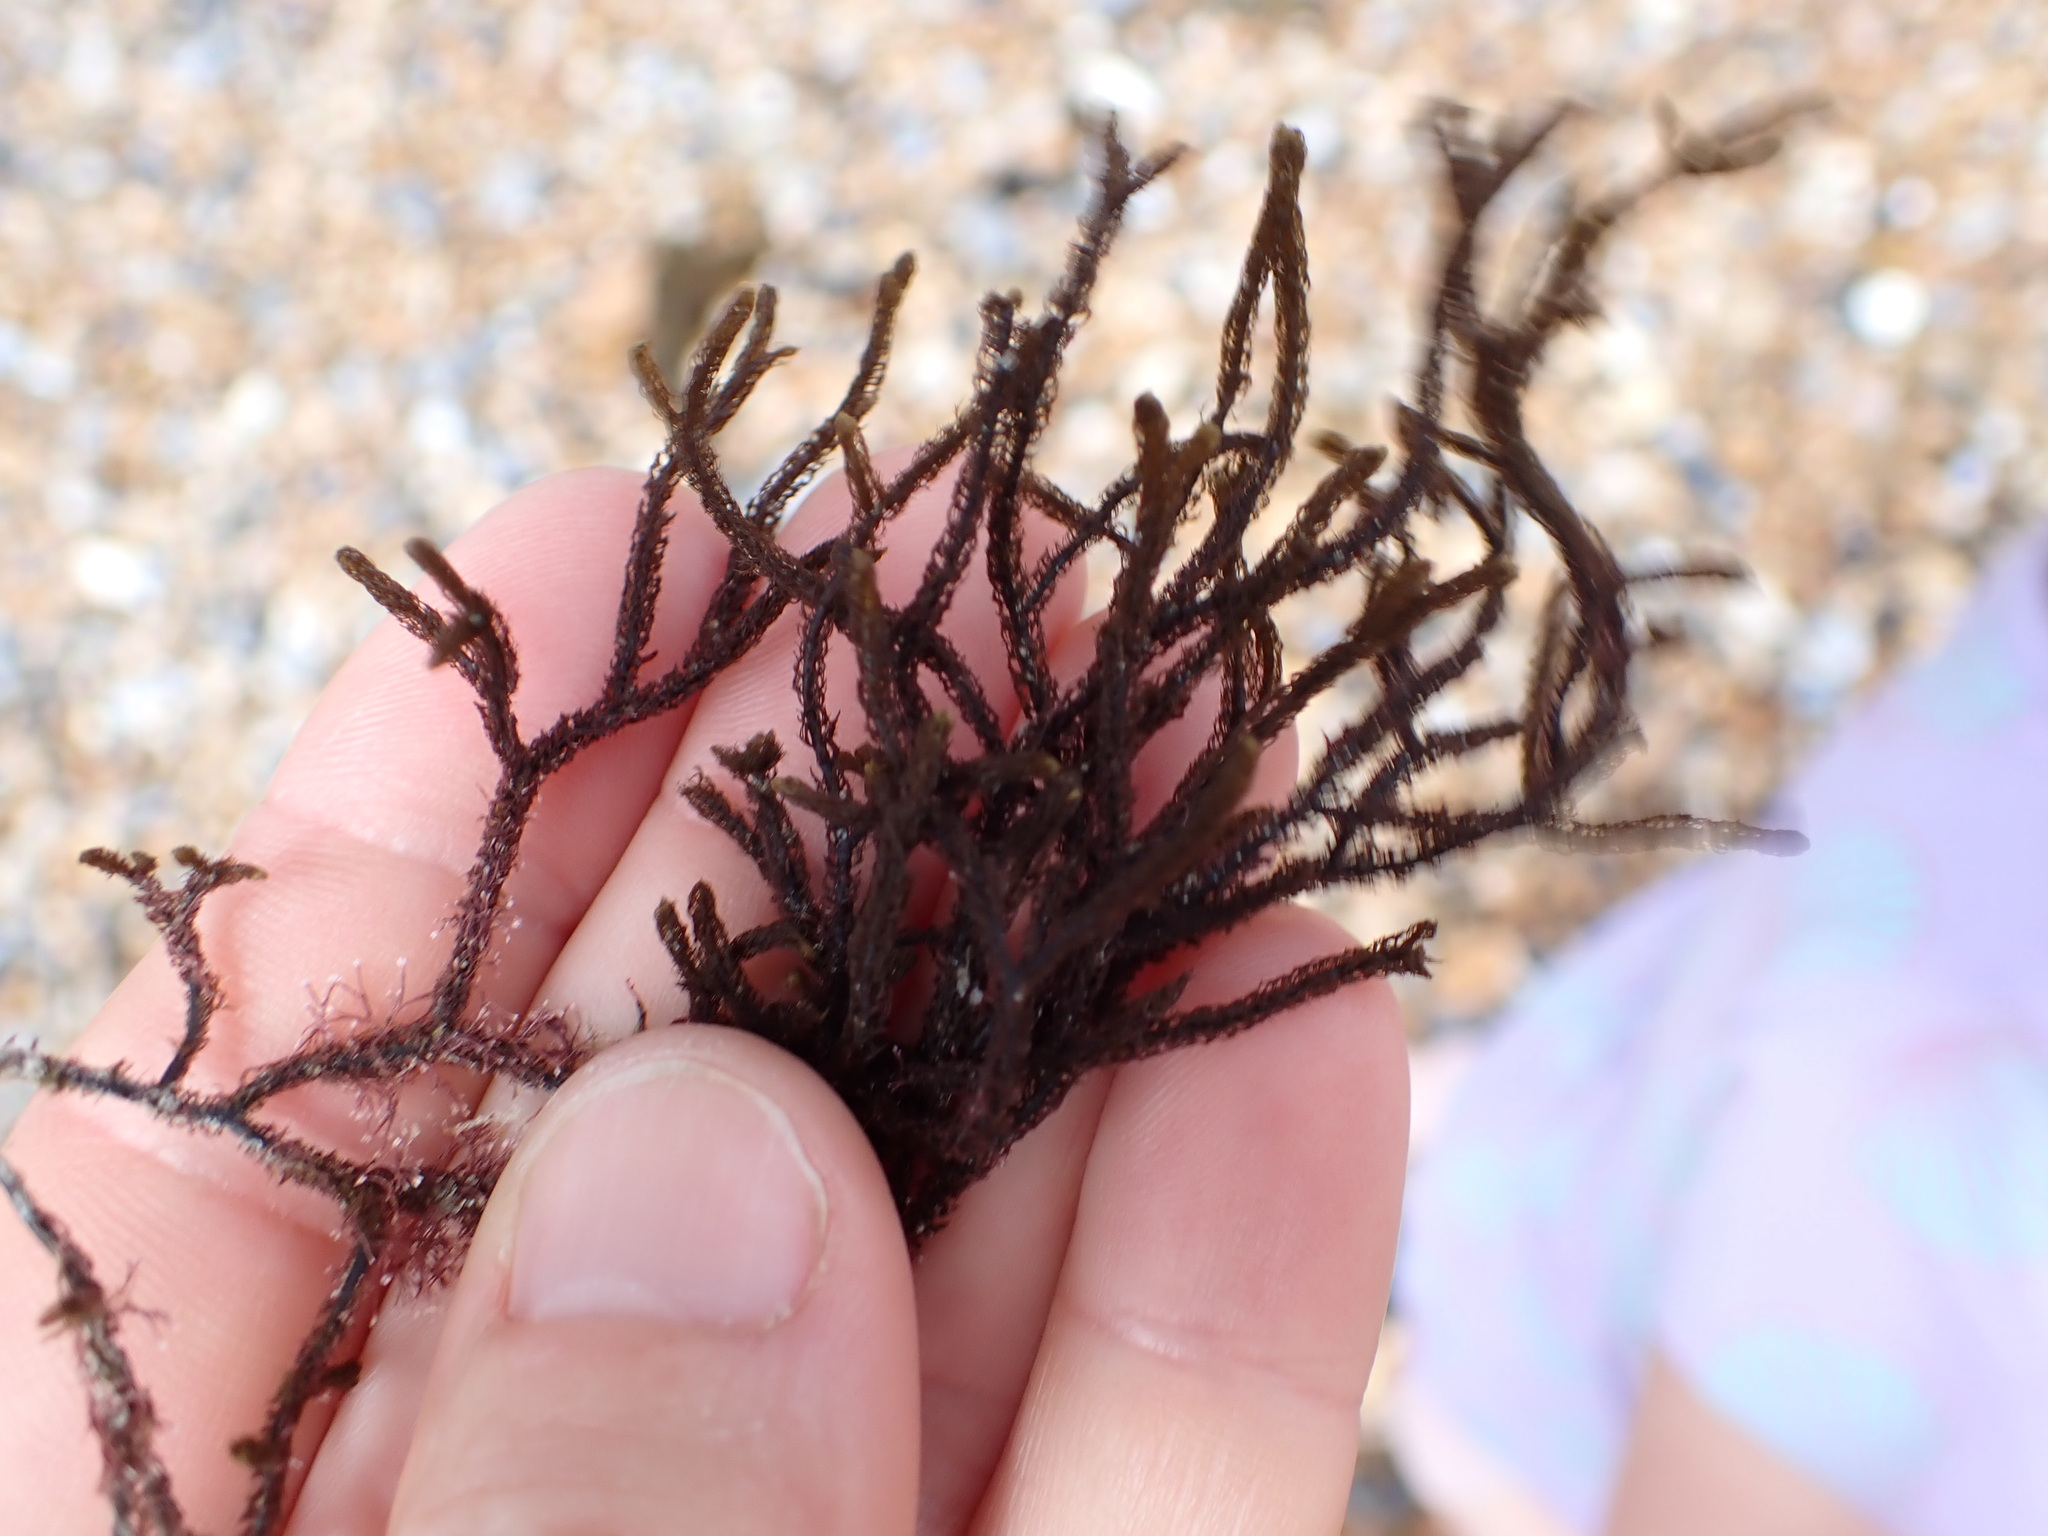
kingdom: Chromista
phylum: Ochrophyta
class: Phaeophyceae
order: Sphacelariales
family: Cladostephaceae
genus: Cladostephus
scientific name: Cladostephus spongiosus
